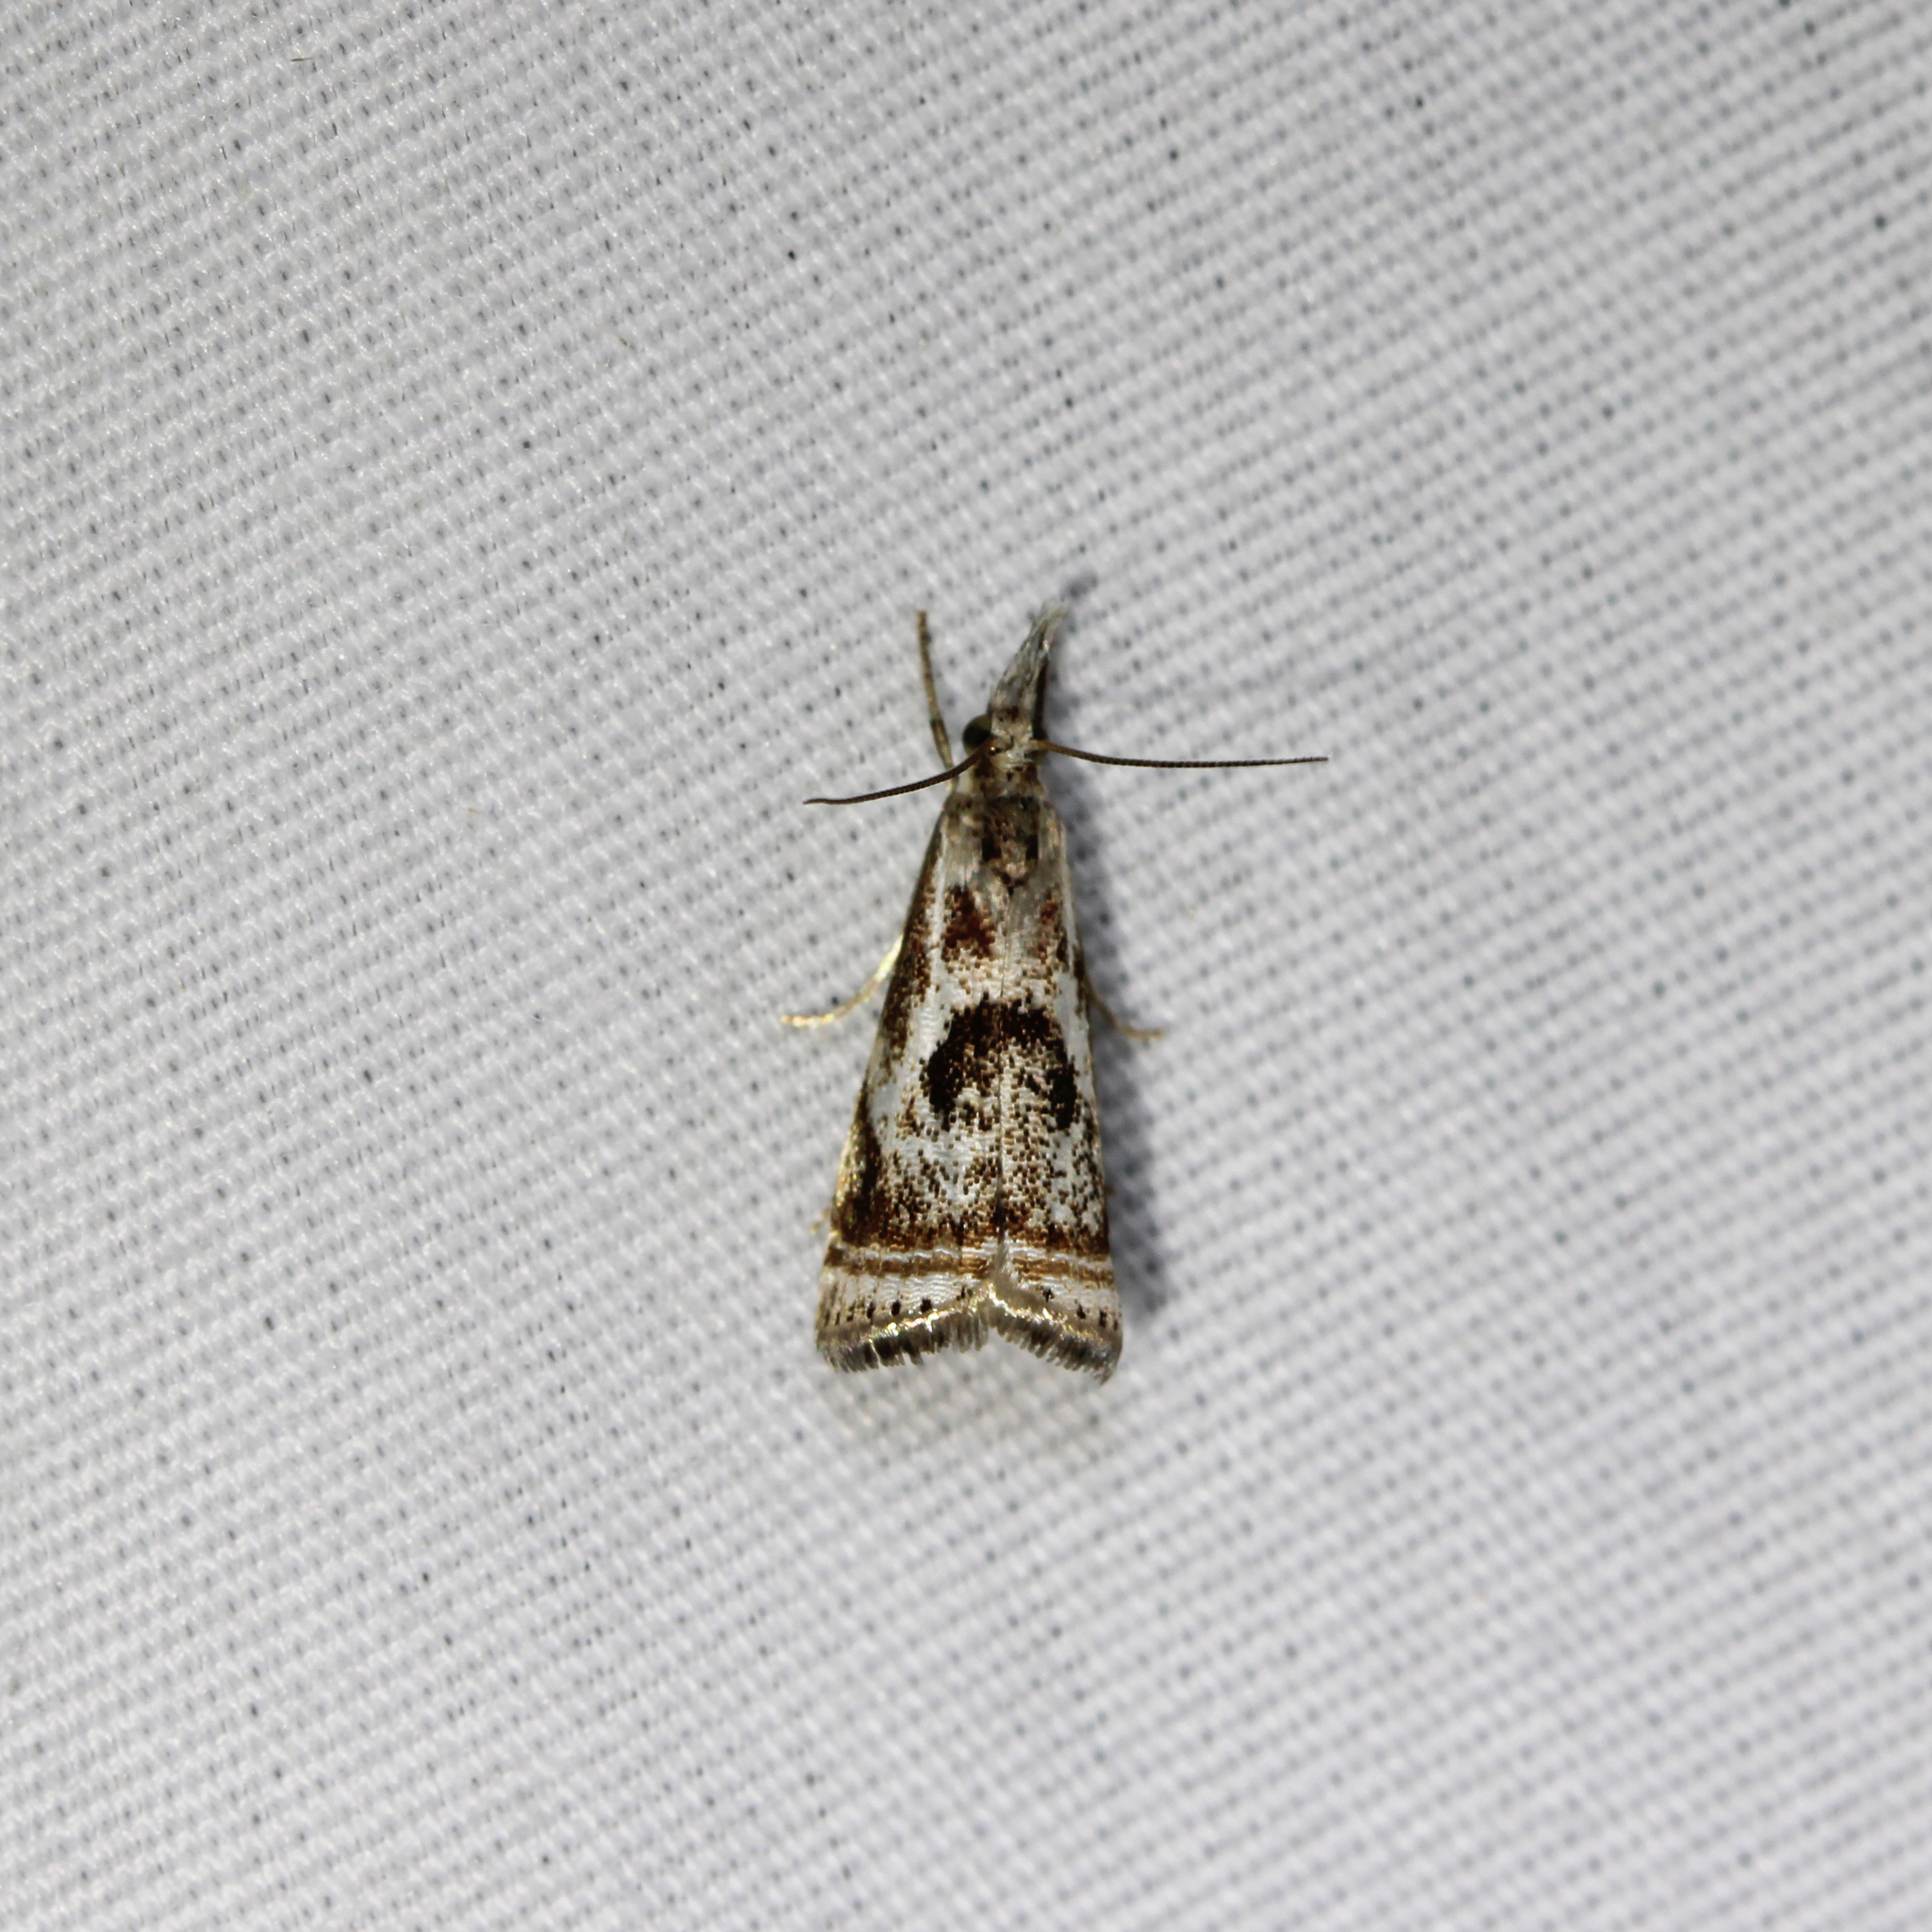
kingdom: Animalia
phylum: Arthropoda
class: Insecta
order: Lepidoptera
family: Crambidae
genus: Microcrambus
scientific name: Microcrambus elegans
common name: Elegant grass-veneer
